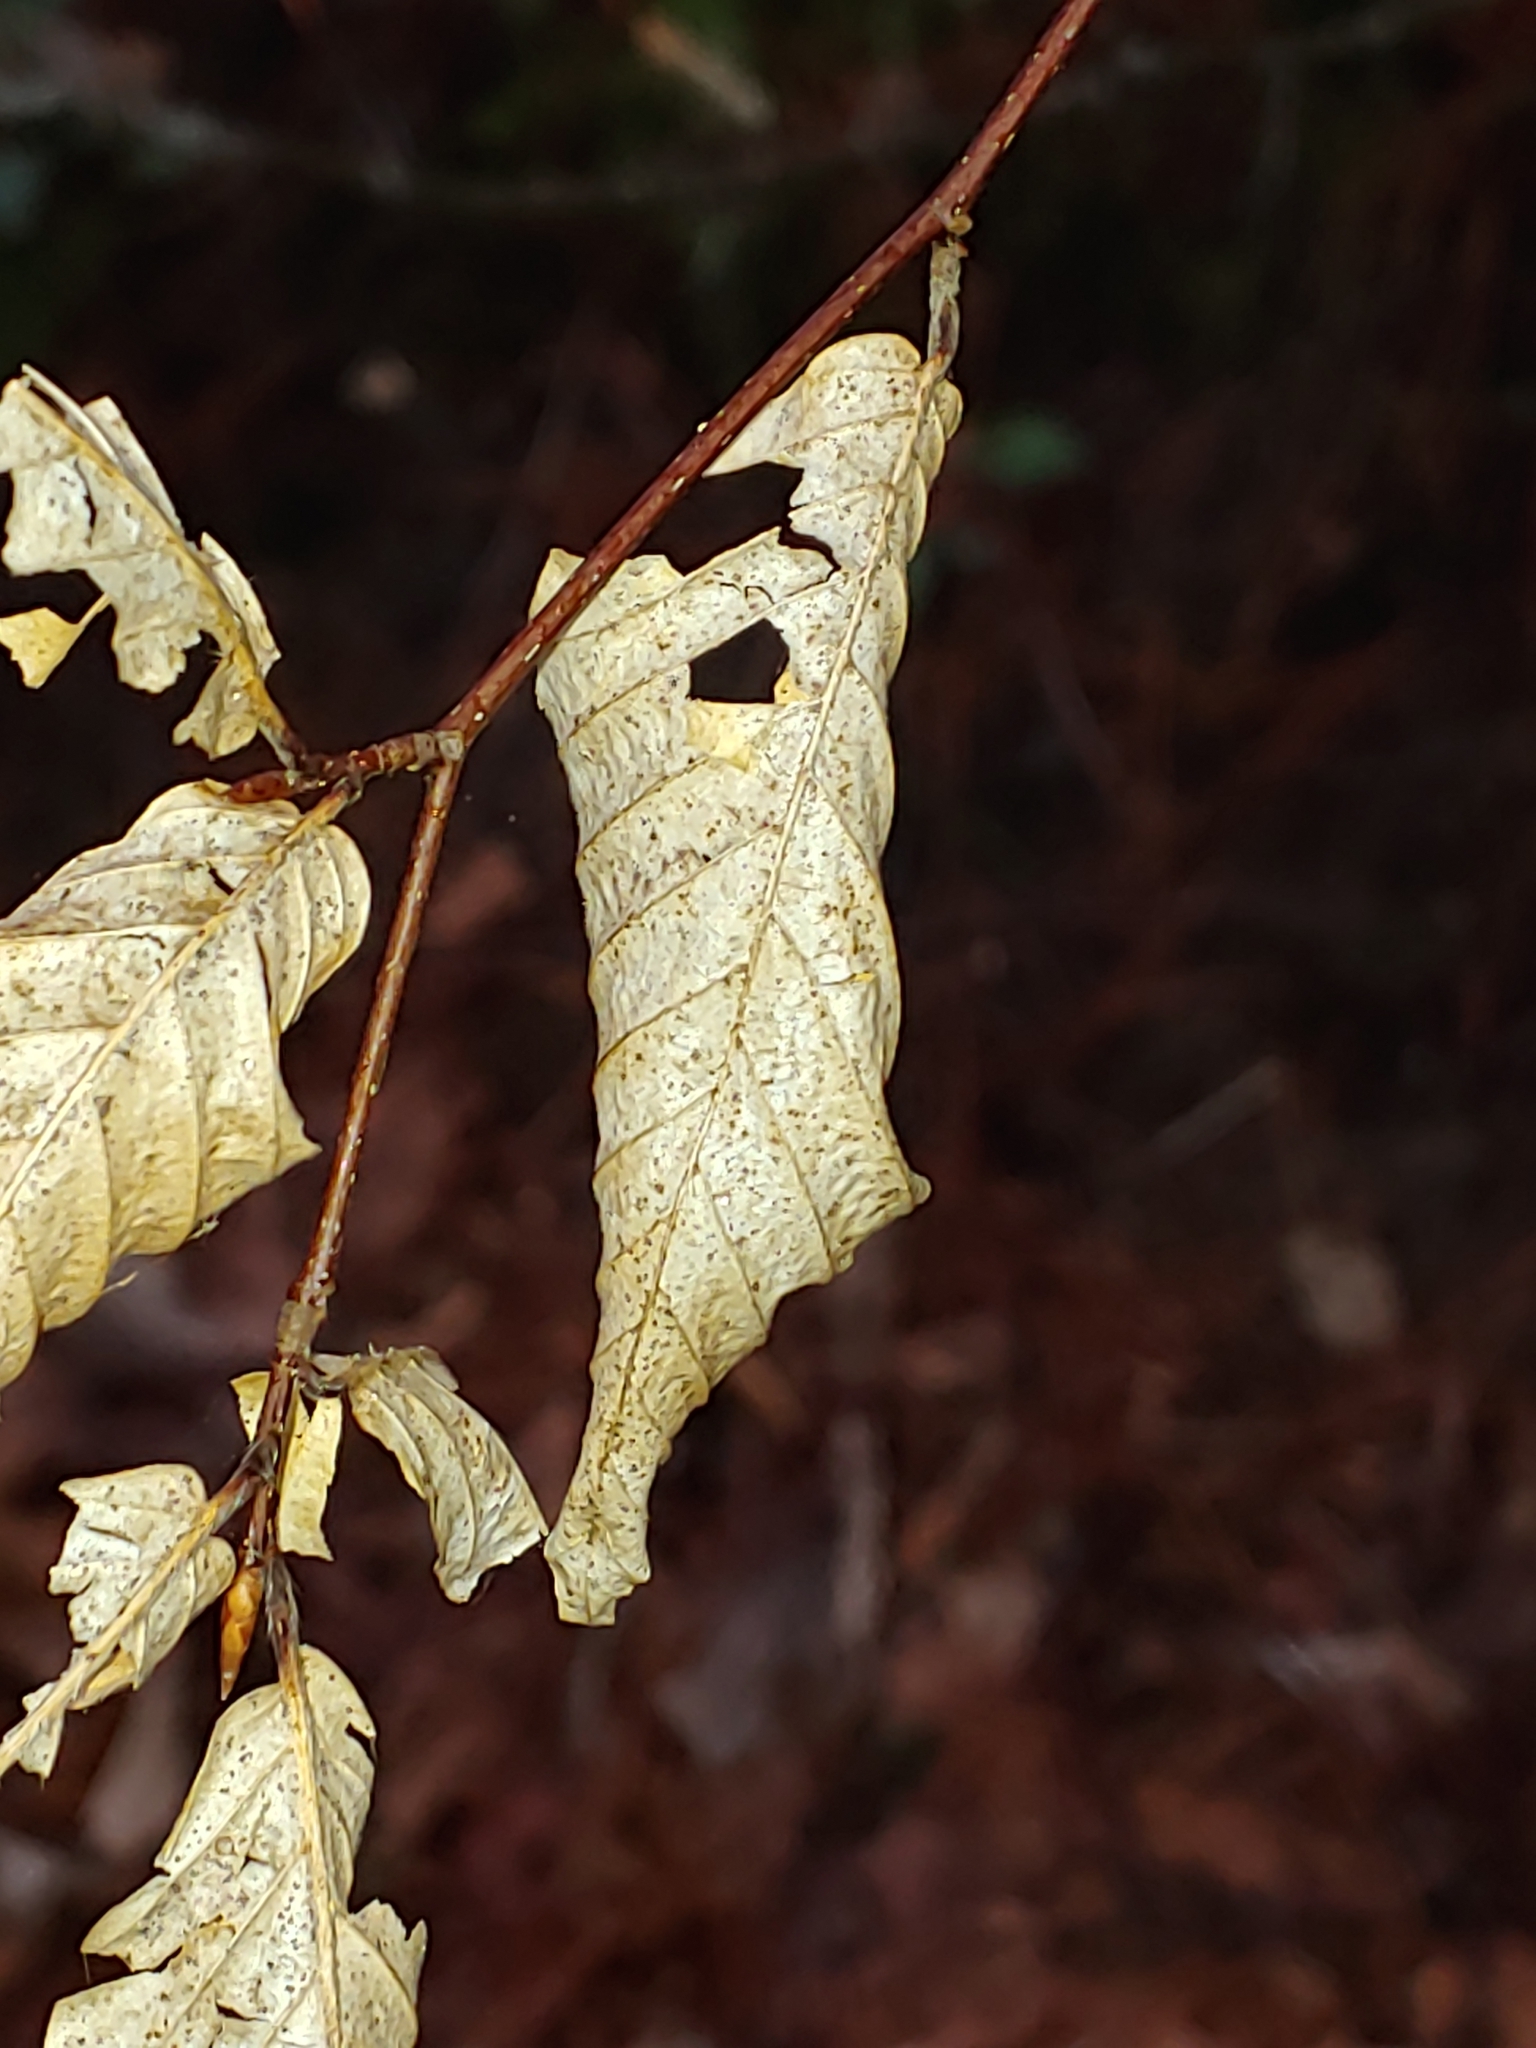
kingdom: Plantae
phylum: Tracheophyta
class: Magnoliopsida
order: Fagales
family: Fagaceae
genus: Fagus
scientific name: Fagus grandifolia
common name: American beech
